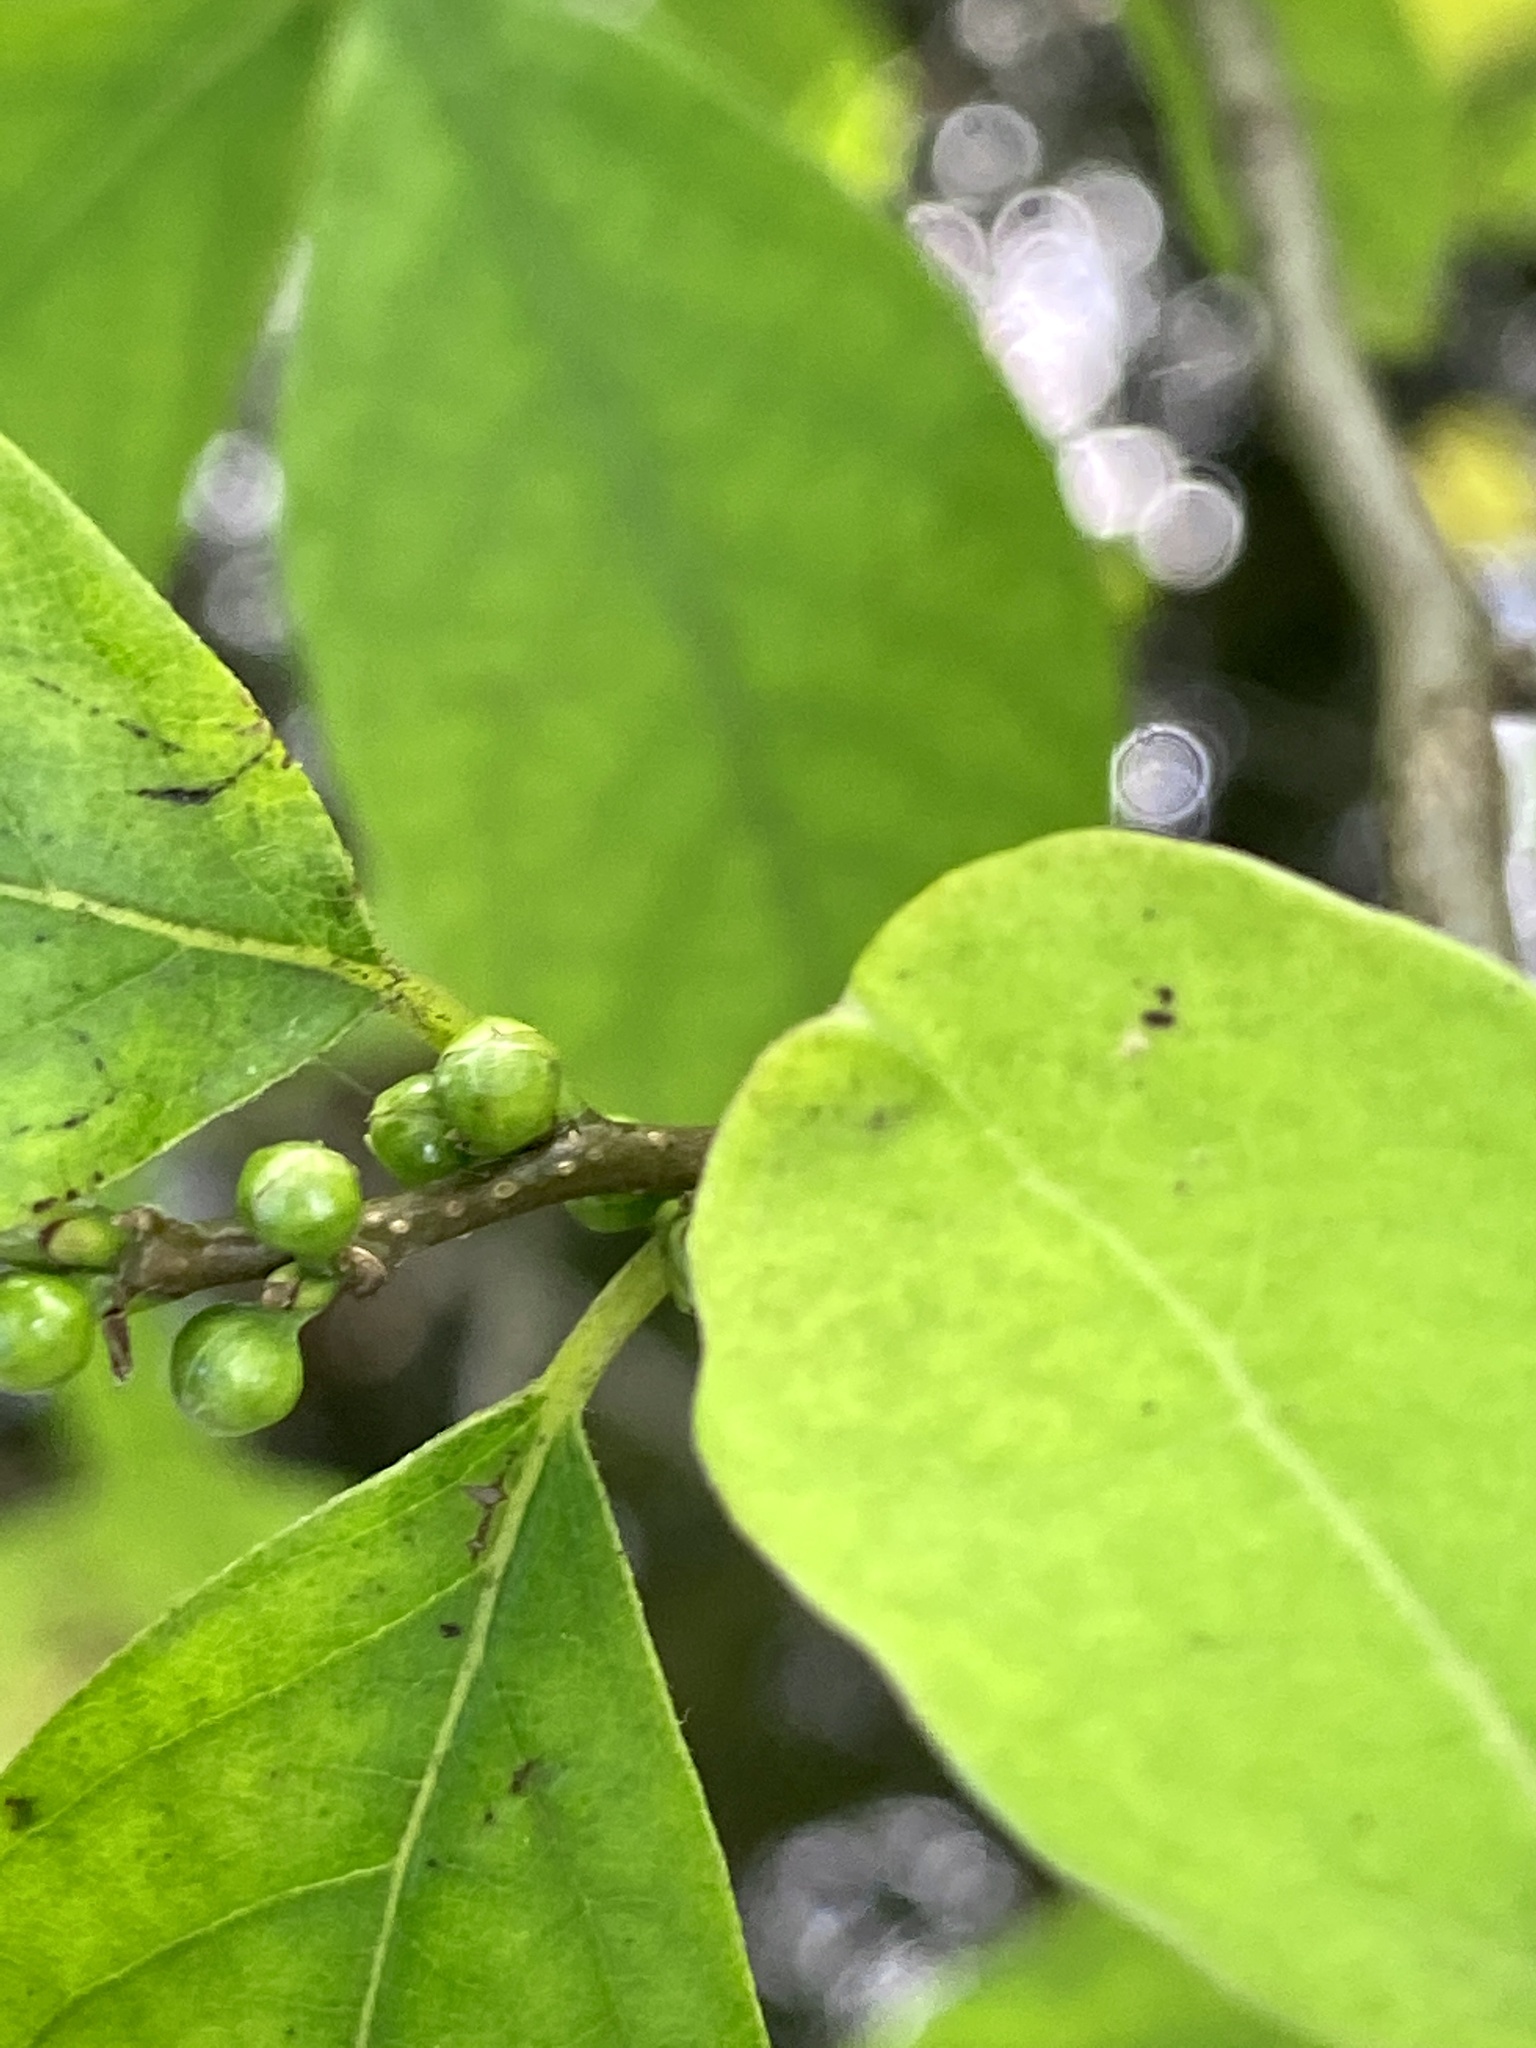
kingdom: Plantae
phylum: Tracheophyta
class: Magnoliopsida
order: Laurales
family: Lauraceae
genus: Lindera
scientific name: Lindera benzoin
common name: Spicebush
